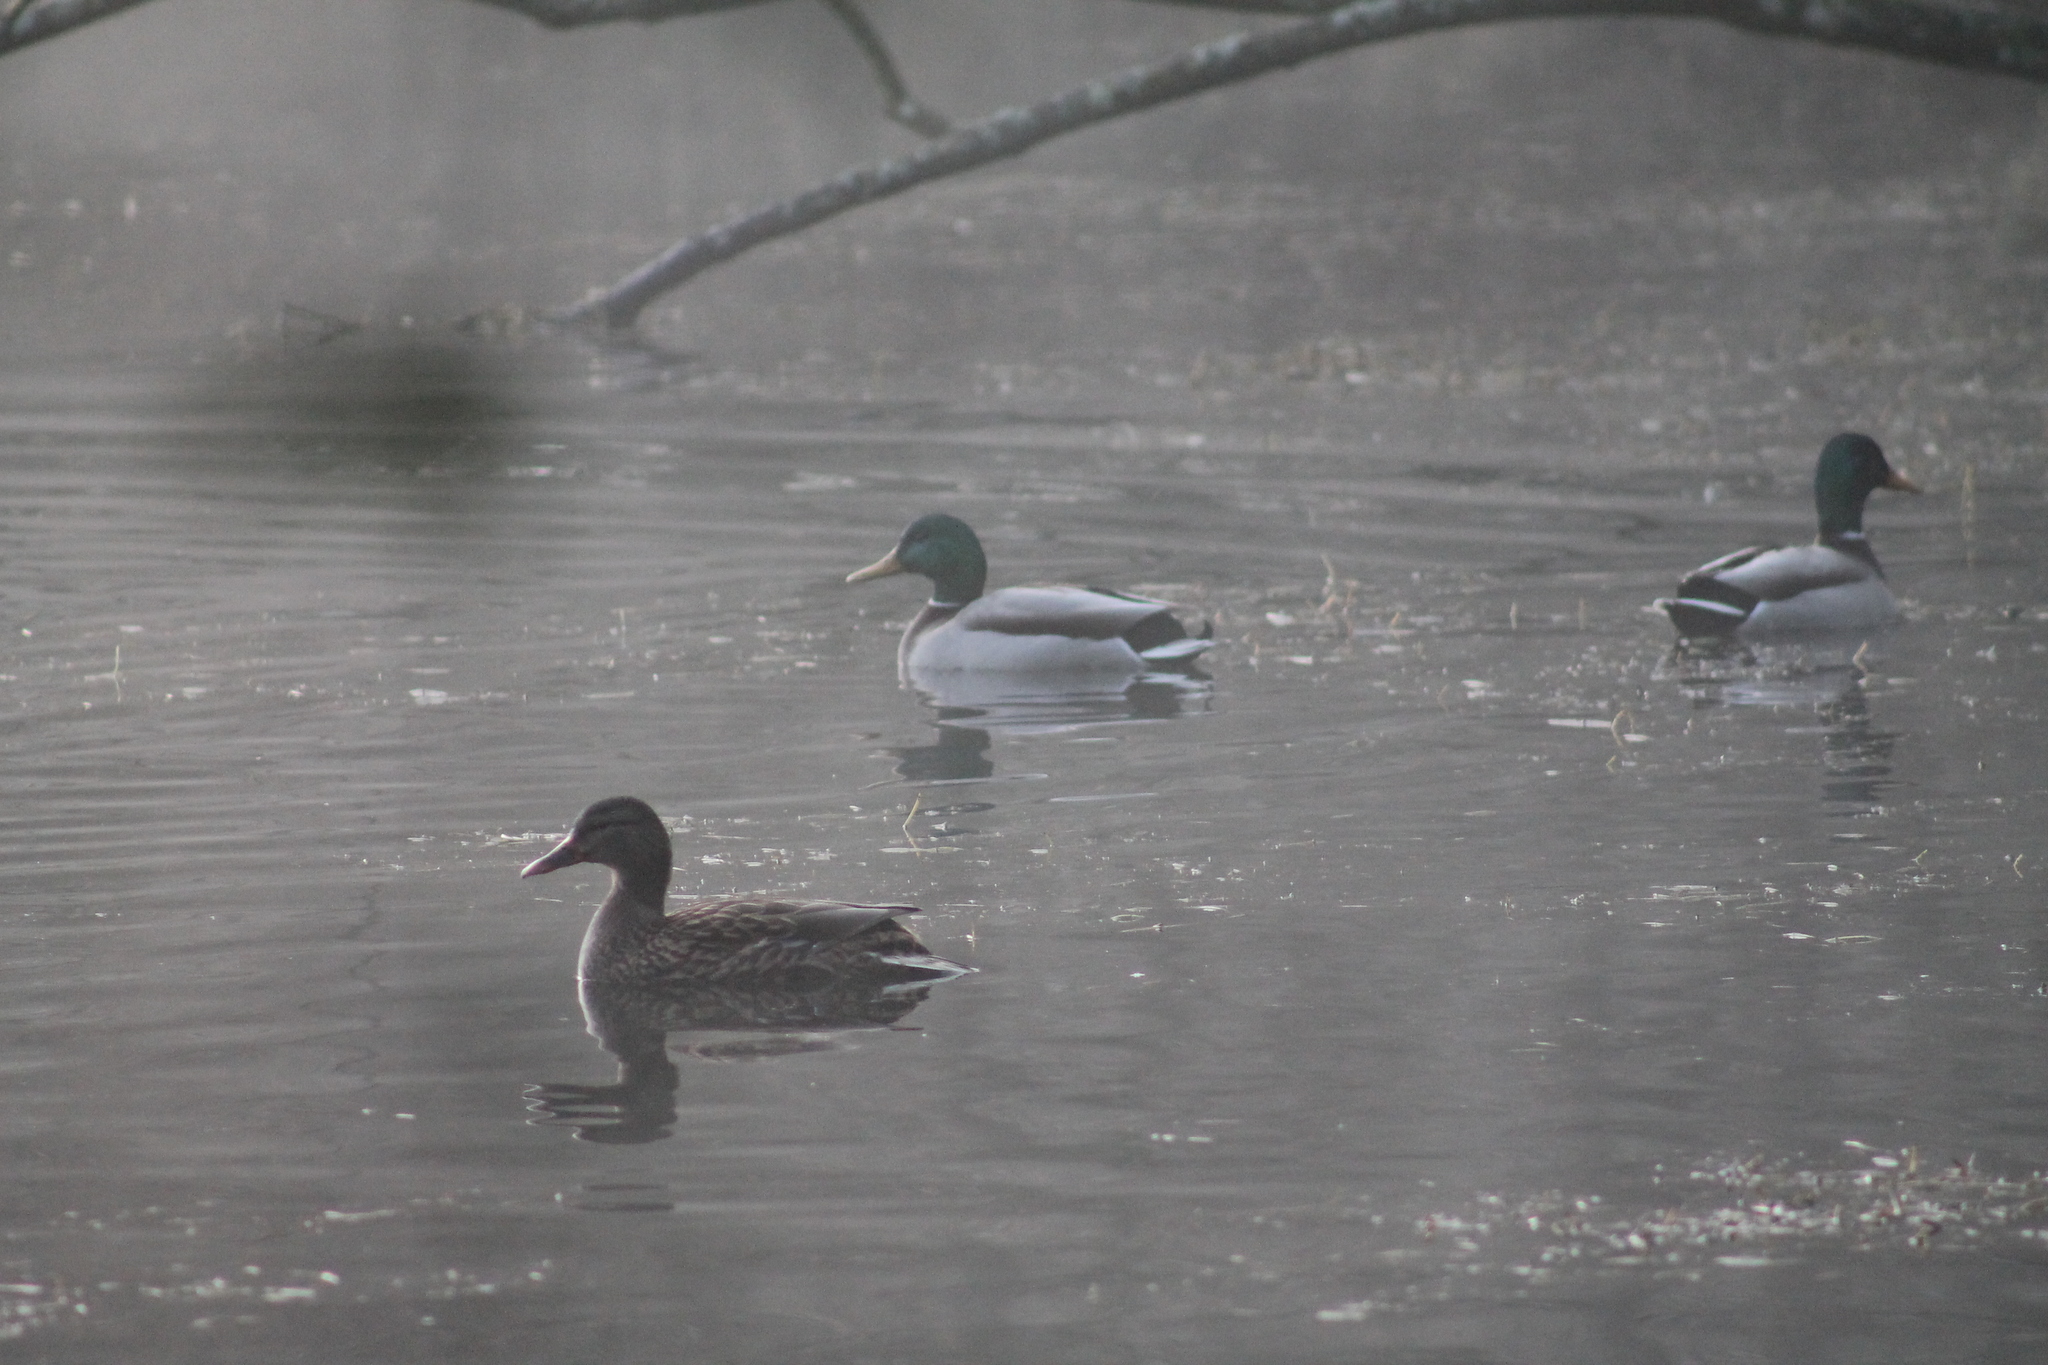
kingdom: Animalia
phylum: Chordata
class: Aves
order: Anseriformes
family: Anatidae
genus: Anas
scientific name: Anas platyrhynchos
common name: Mallard
